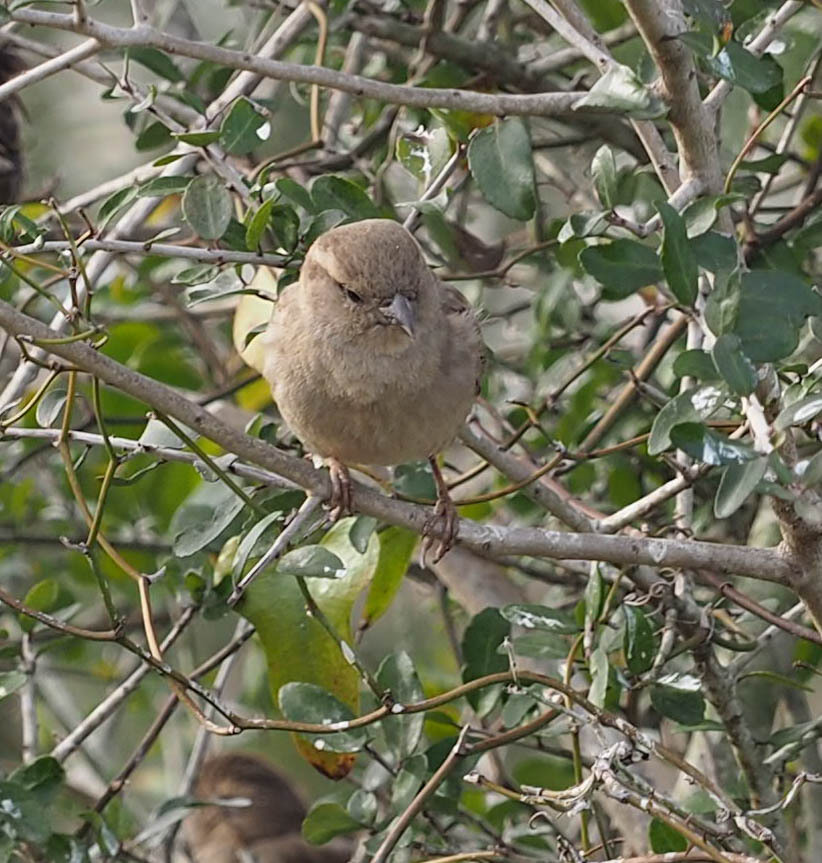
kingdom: Animalia
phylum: Chordata
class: Aves
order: Passeriformes
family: Passeridae
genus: Passer
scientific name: Passer domesticus
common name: House sparrow
